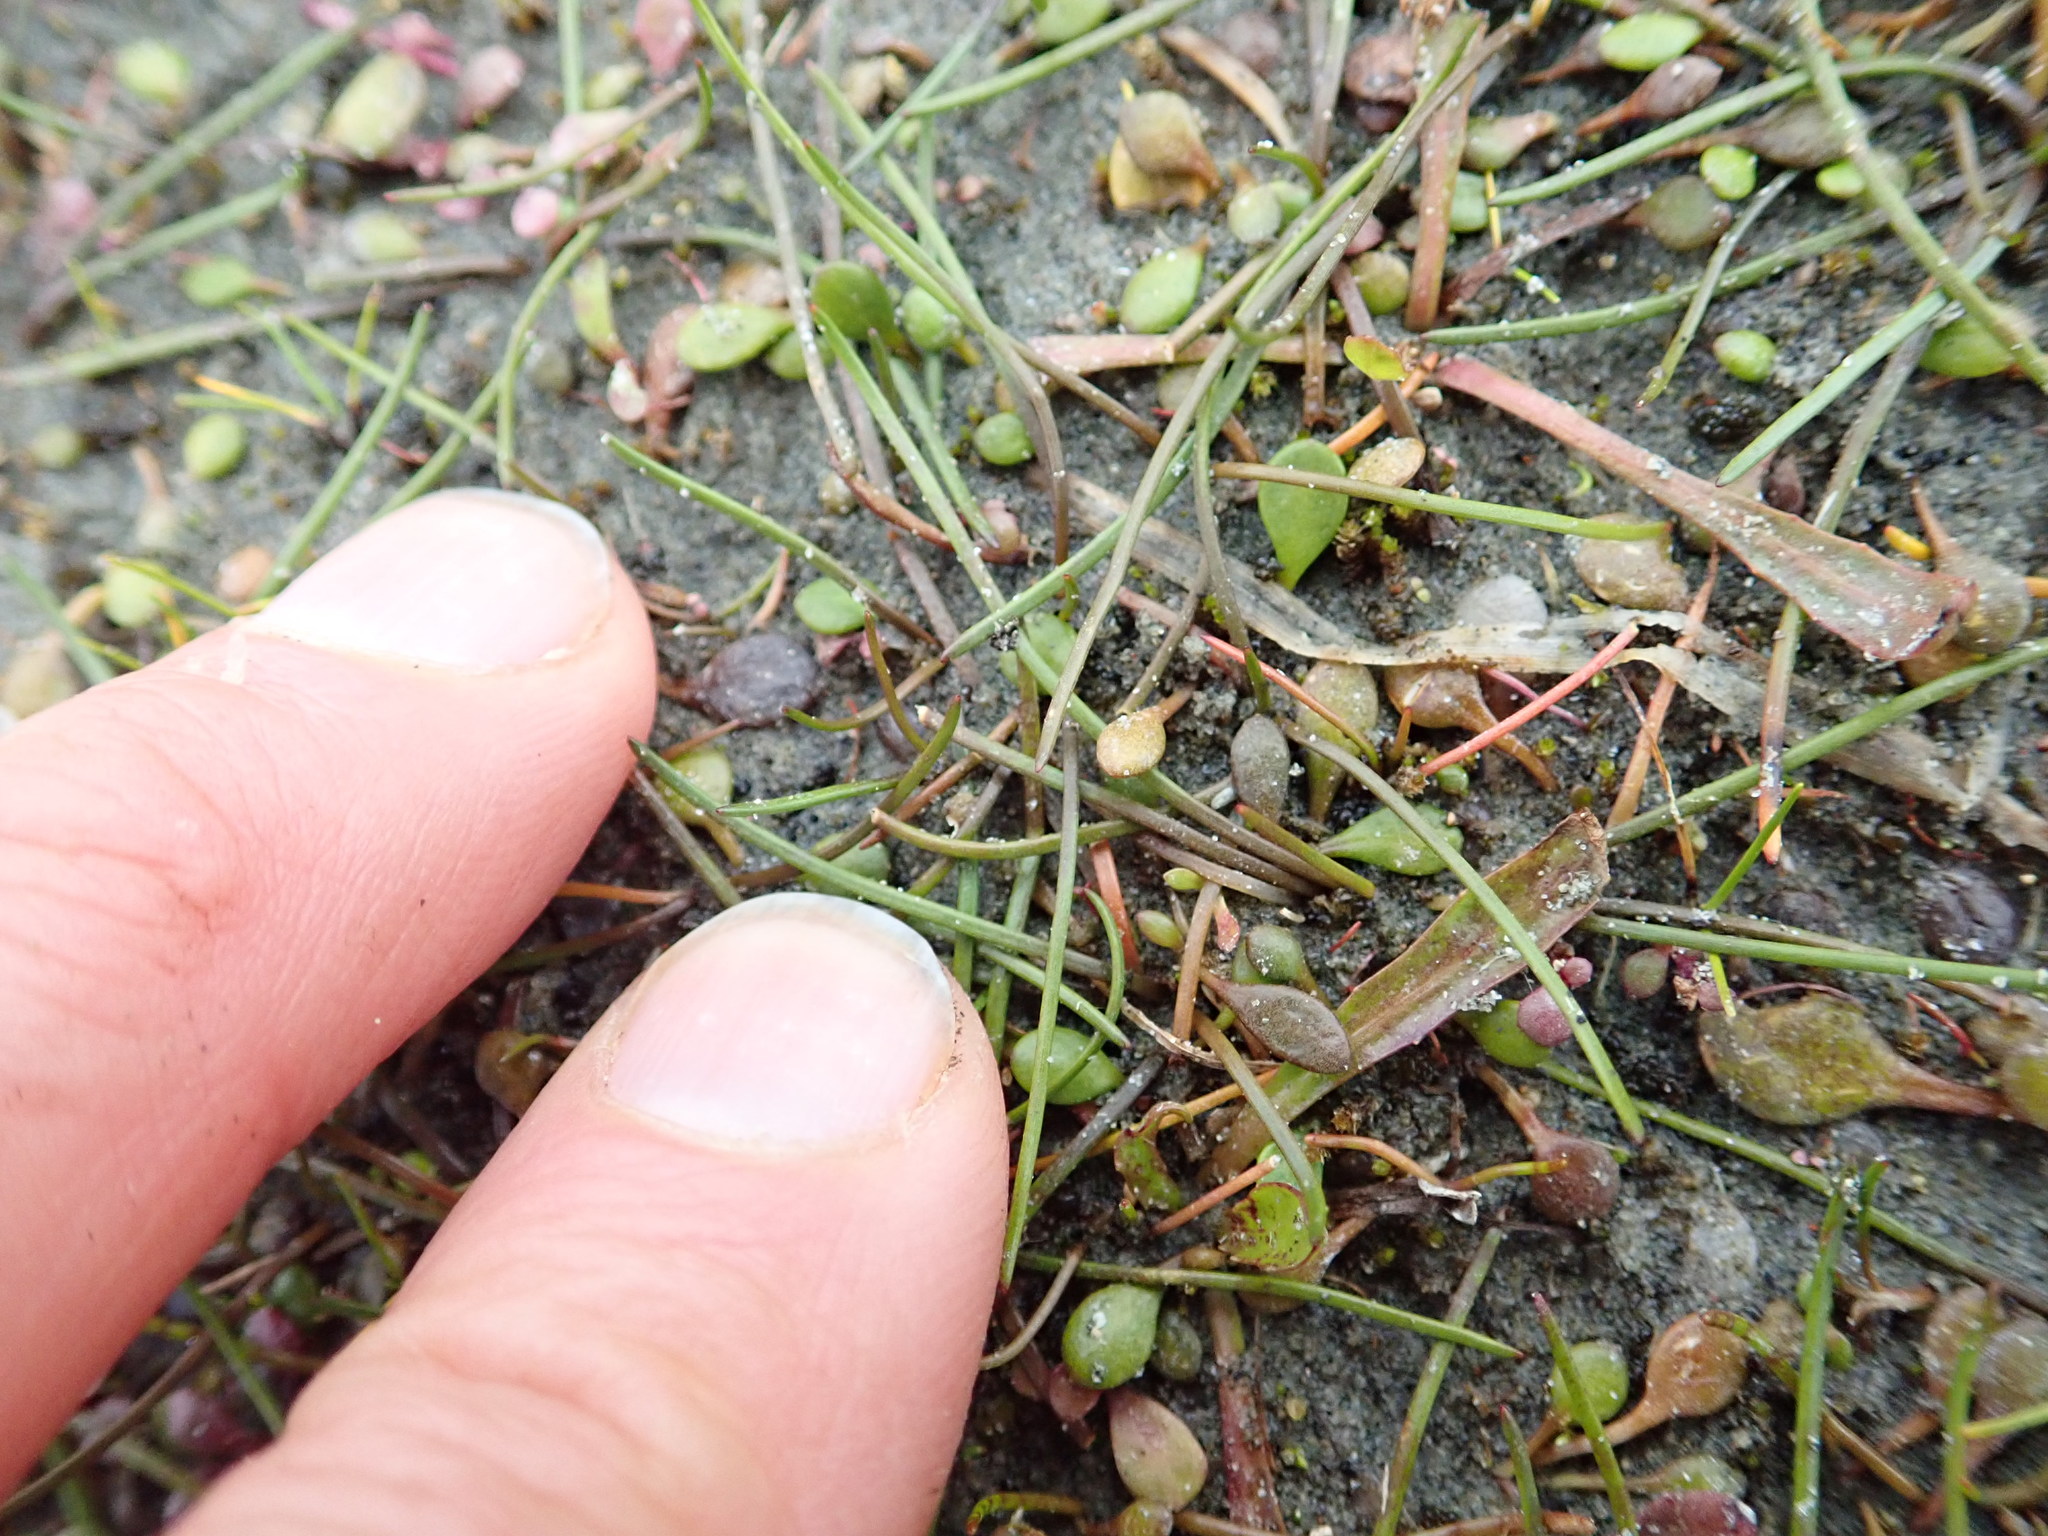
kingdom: Plantae
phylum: Tracheophyta
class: Liliopsida
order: Alismatales
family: Juncaginaceae
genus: Triglochin
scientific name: Triglochin striata
